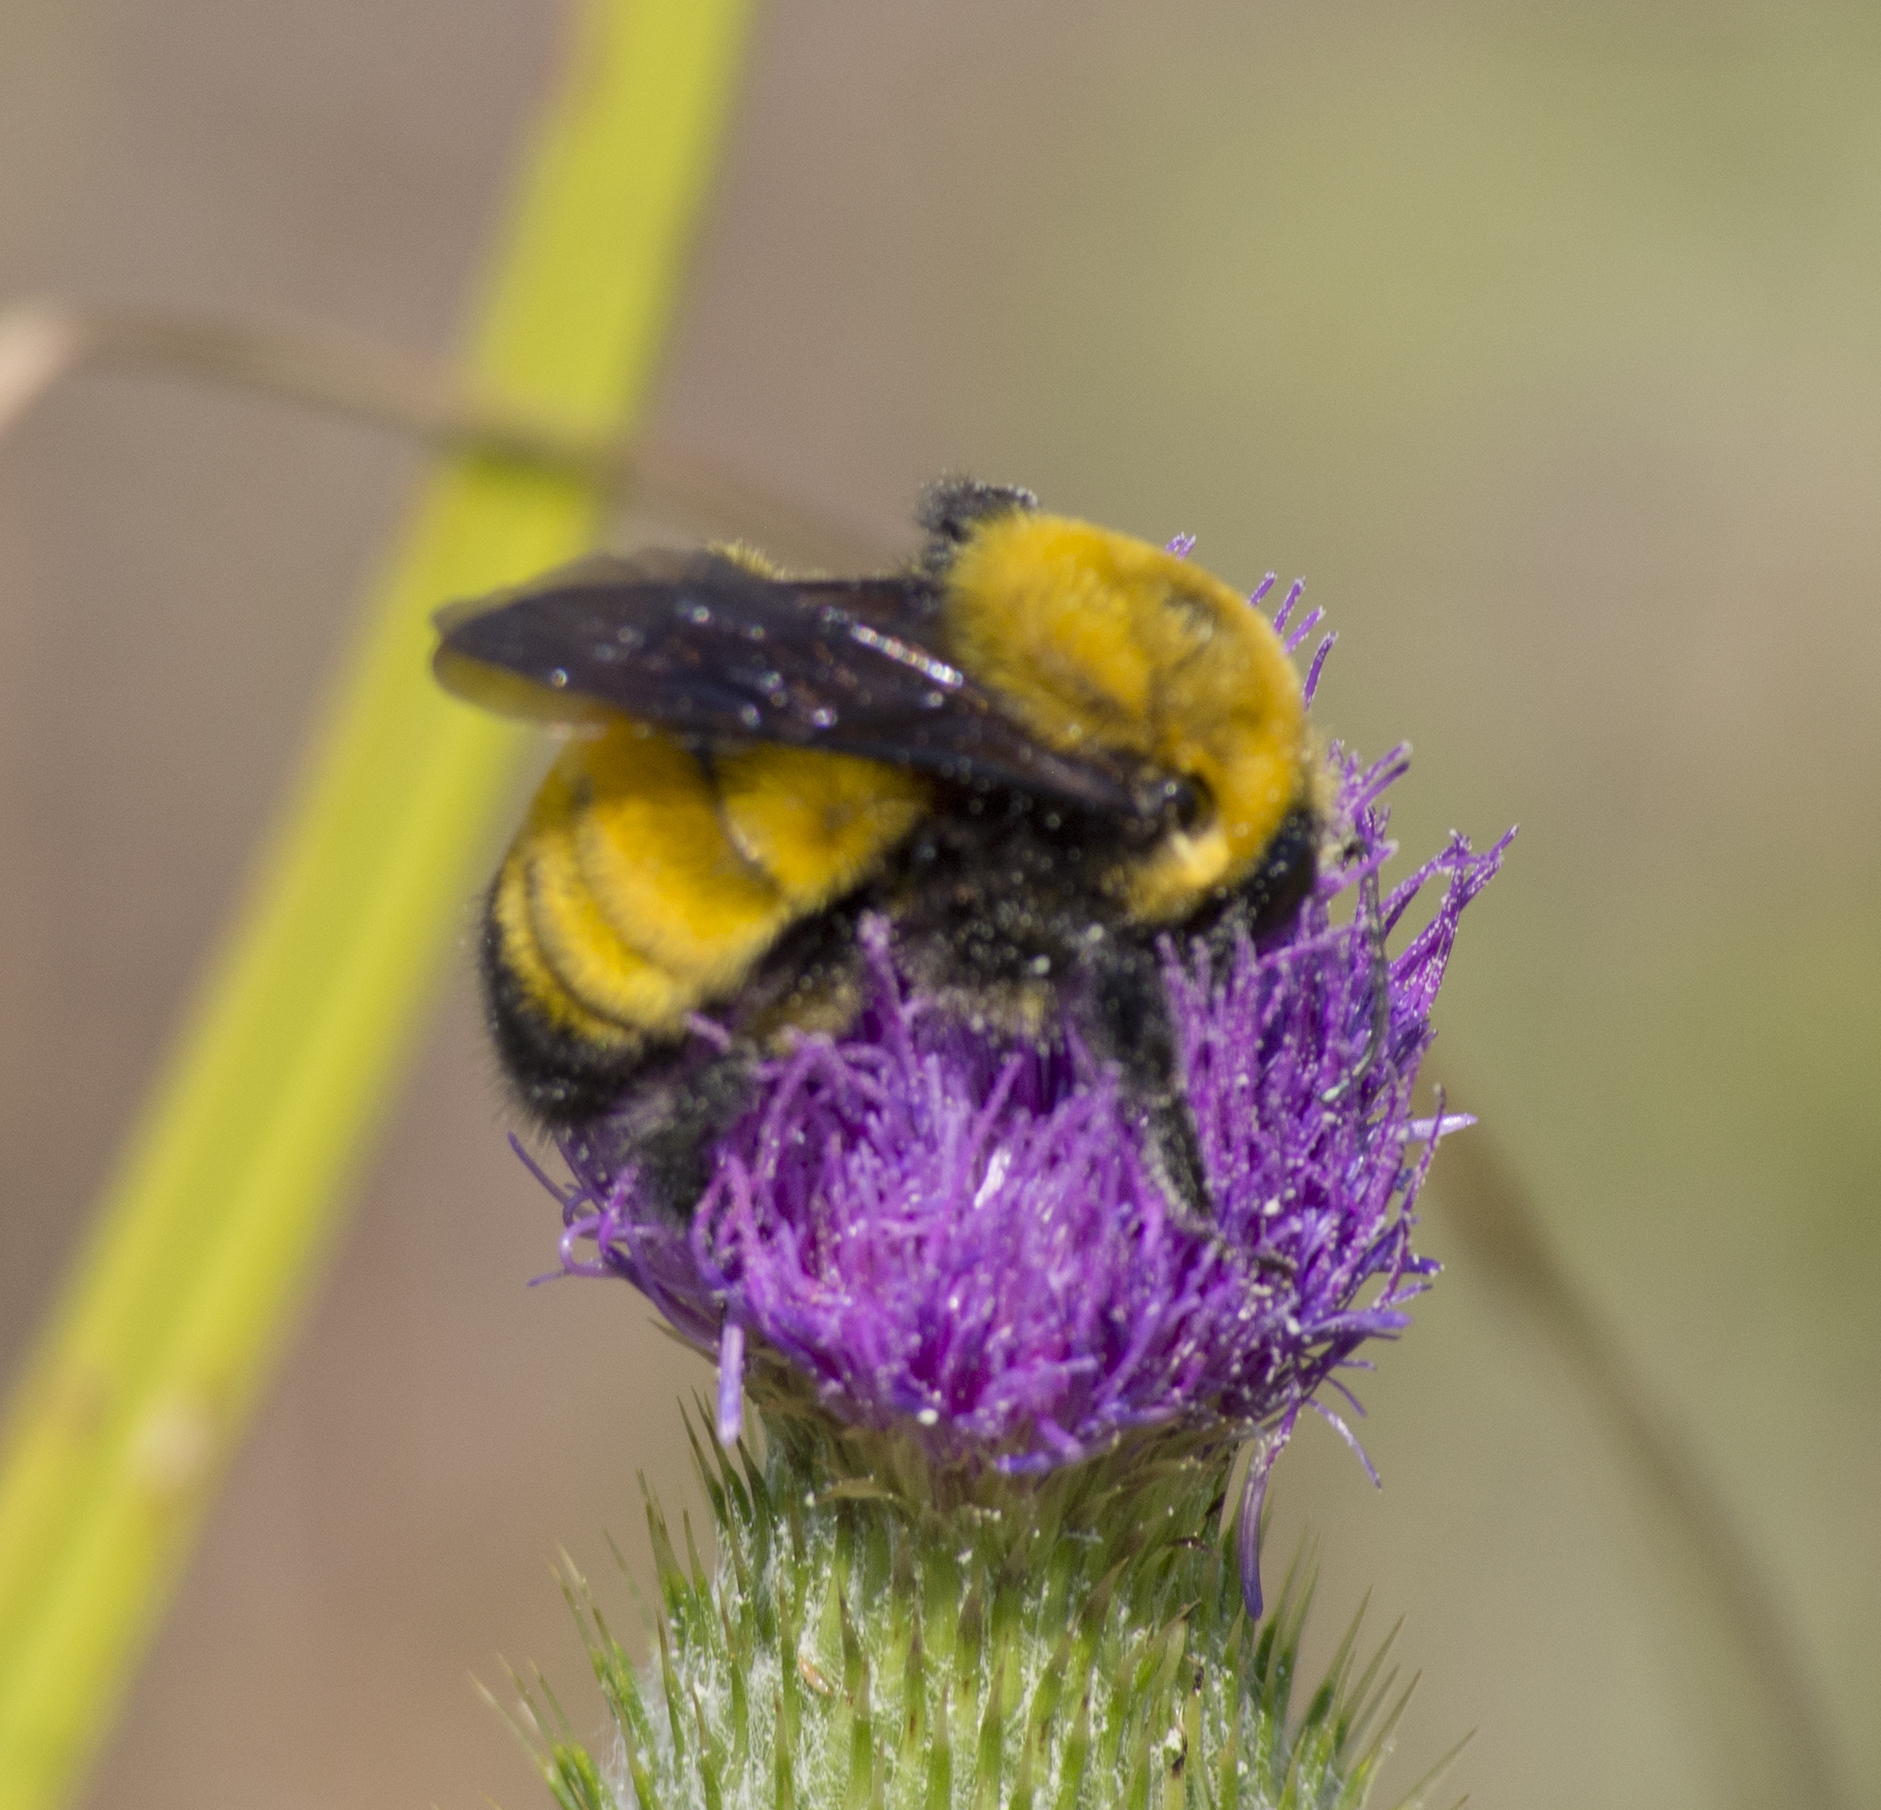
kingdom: Animalia
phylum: Arthropoda
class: Insecta
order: Hymenoptera
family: Apidae
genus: Bombus
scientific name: Bombus morrisoni
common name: Morrison bumble bee
